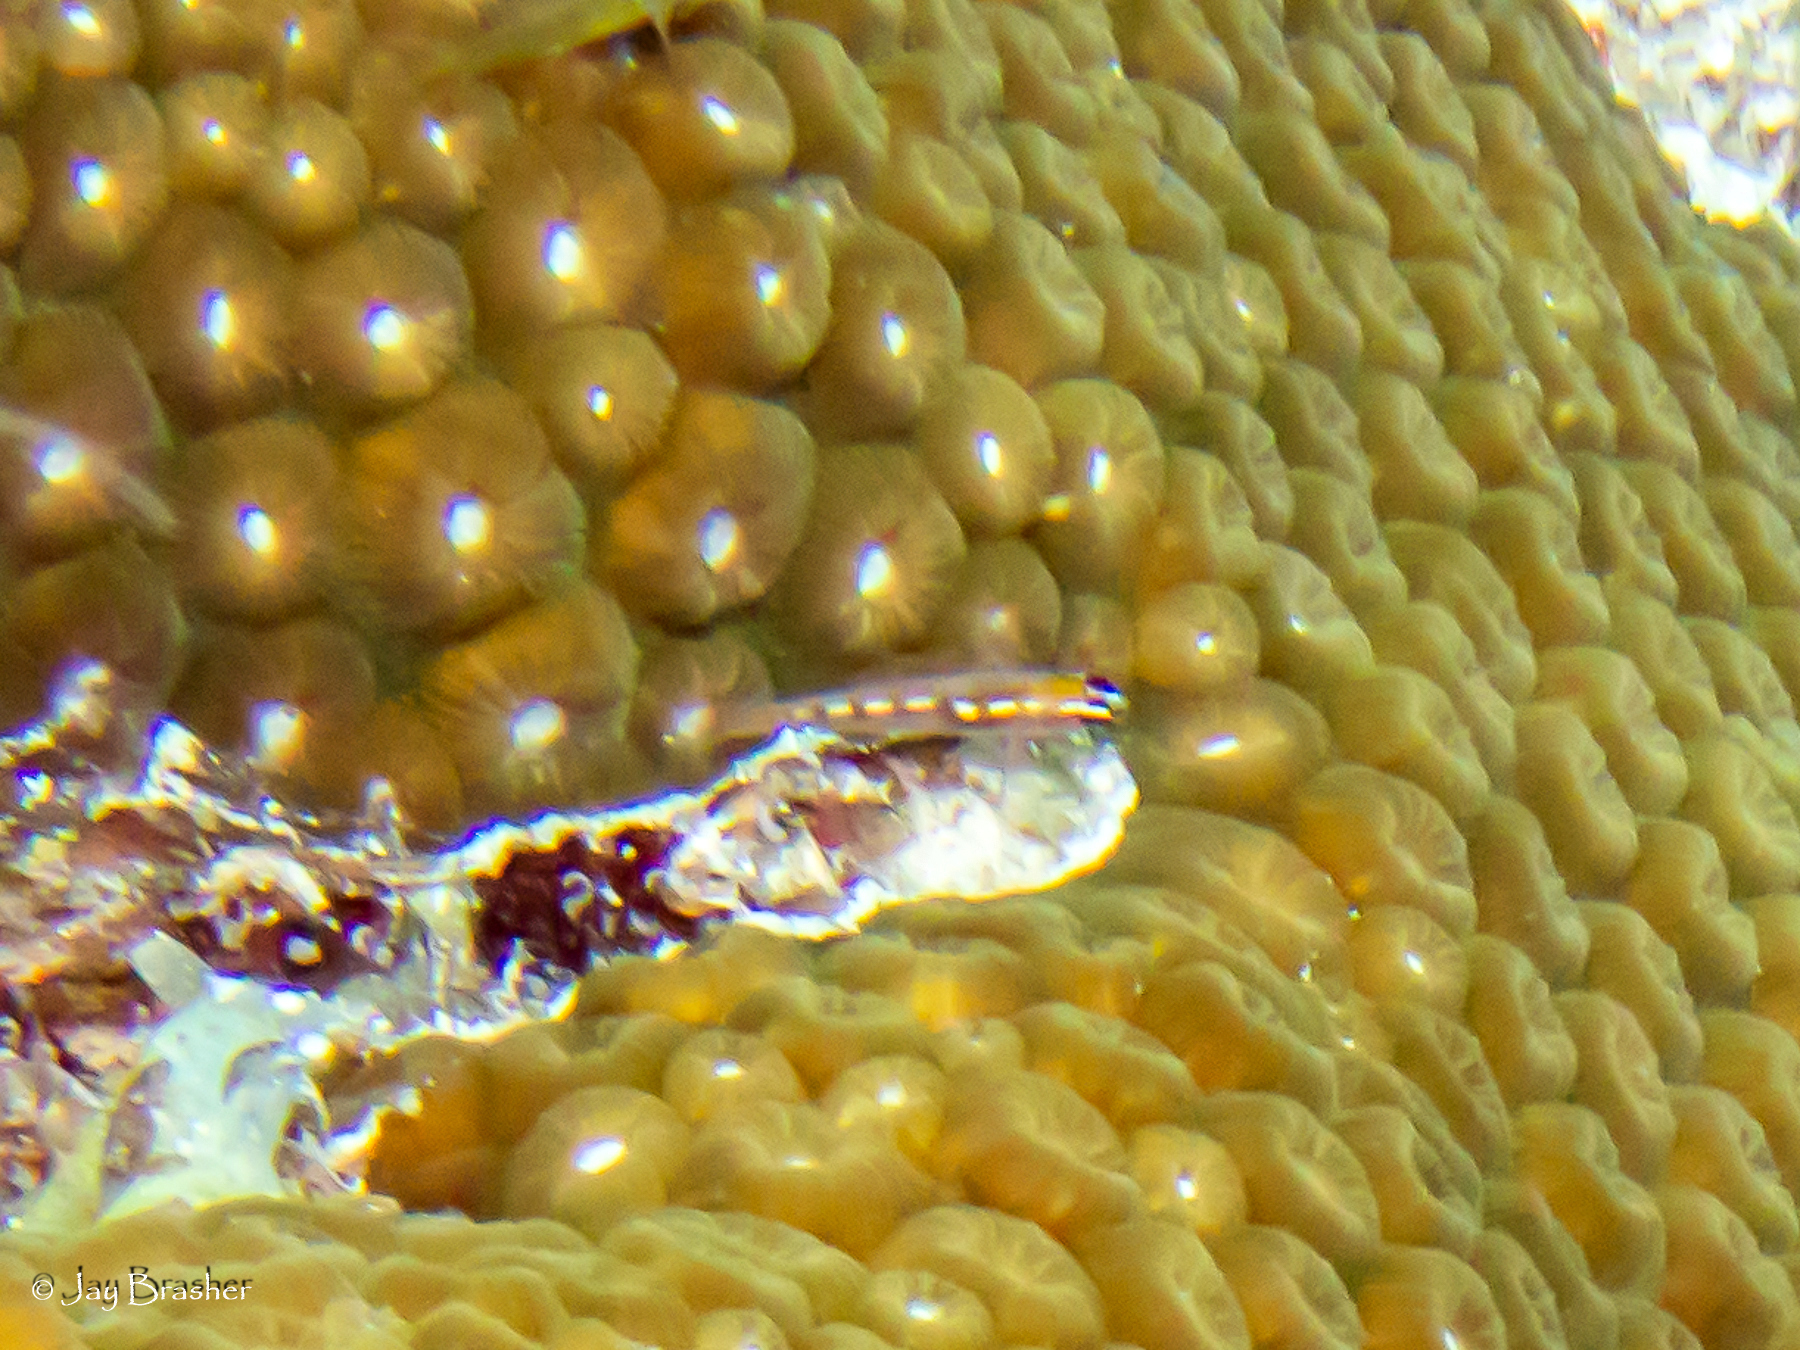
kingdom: Animalia
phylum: Chordata
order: Perciformes
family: Gobiidae
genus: Coryphopterus
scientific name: Coryphopterus hyalinus
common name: Glass goby
